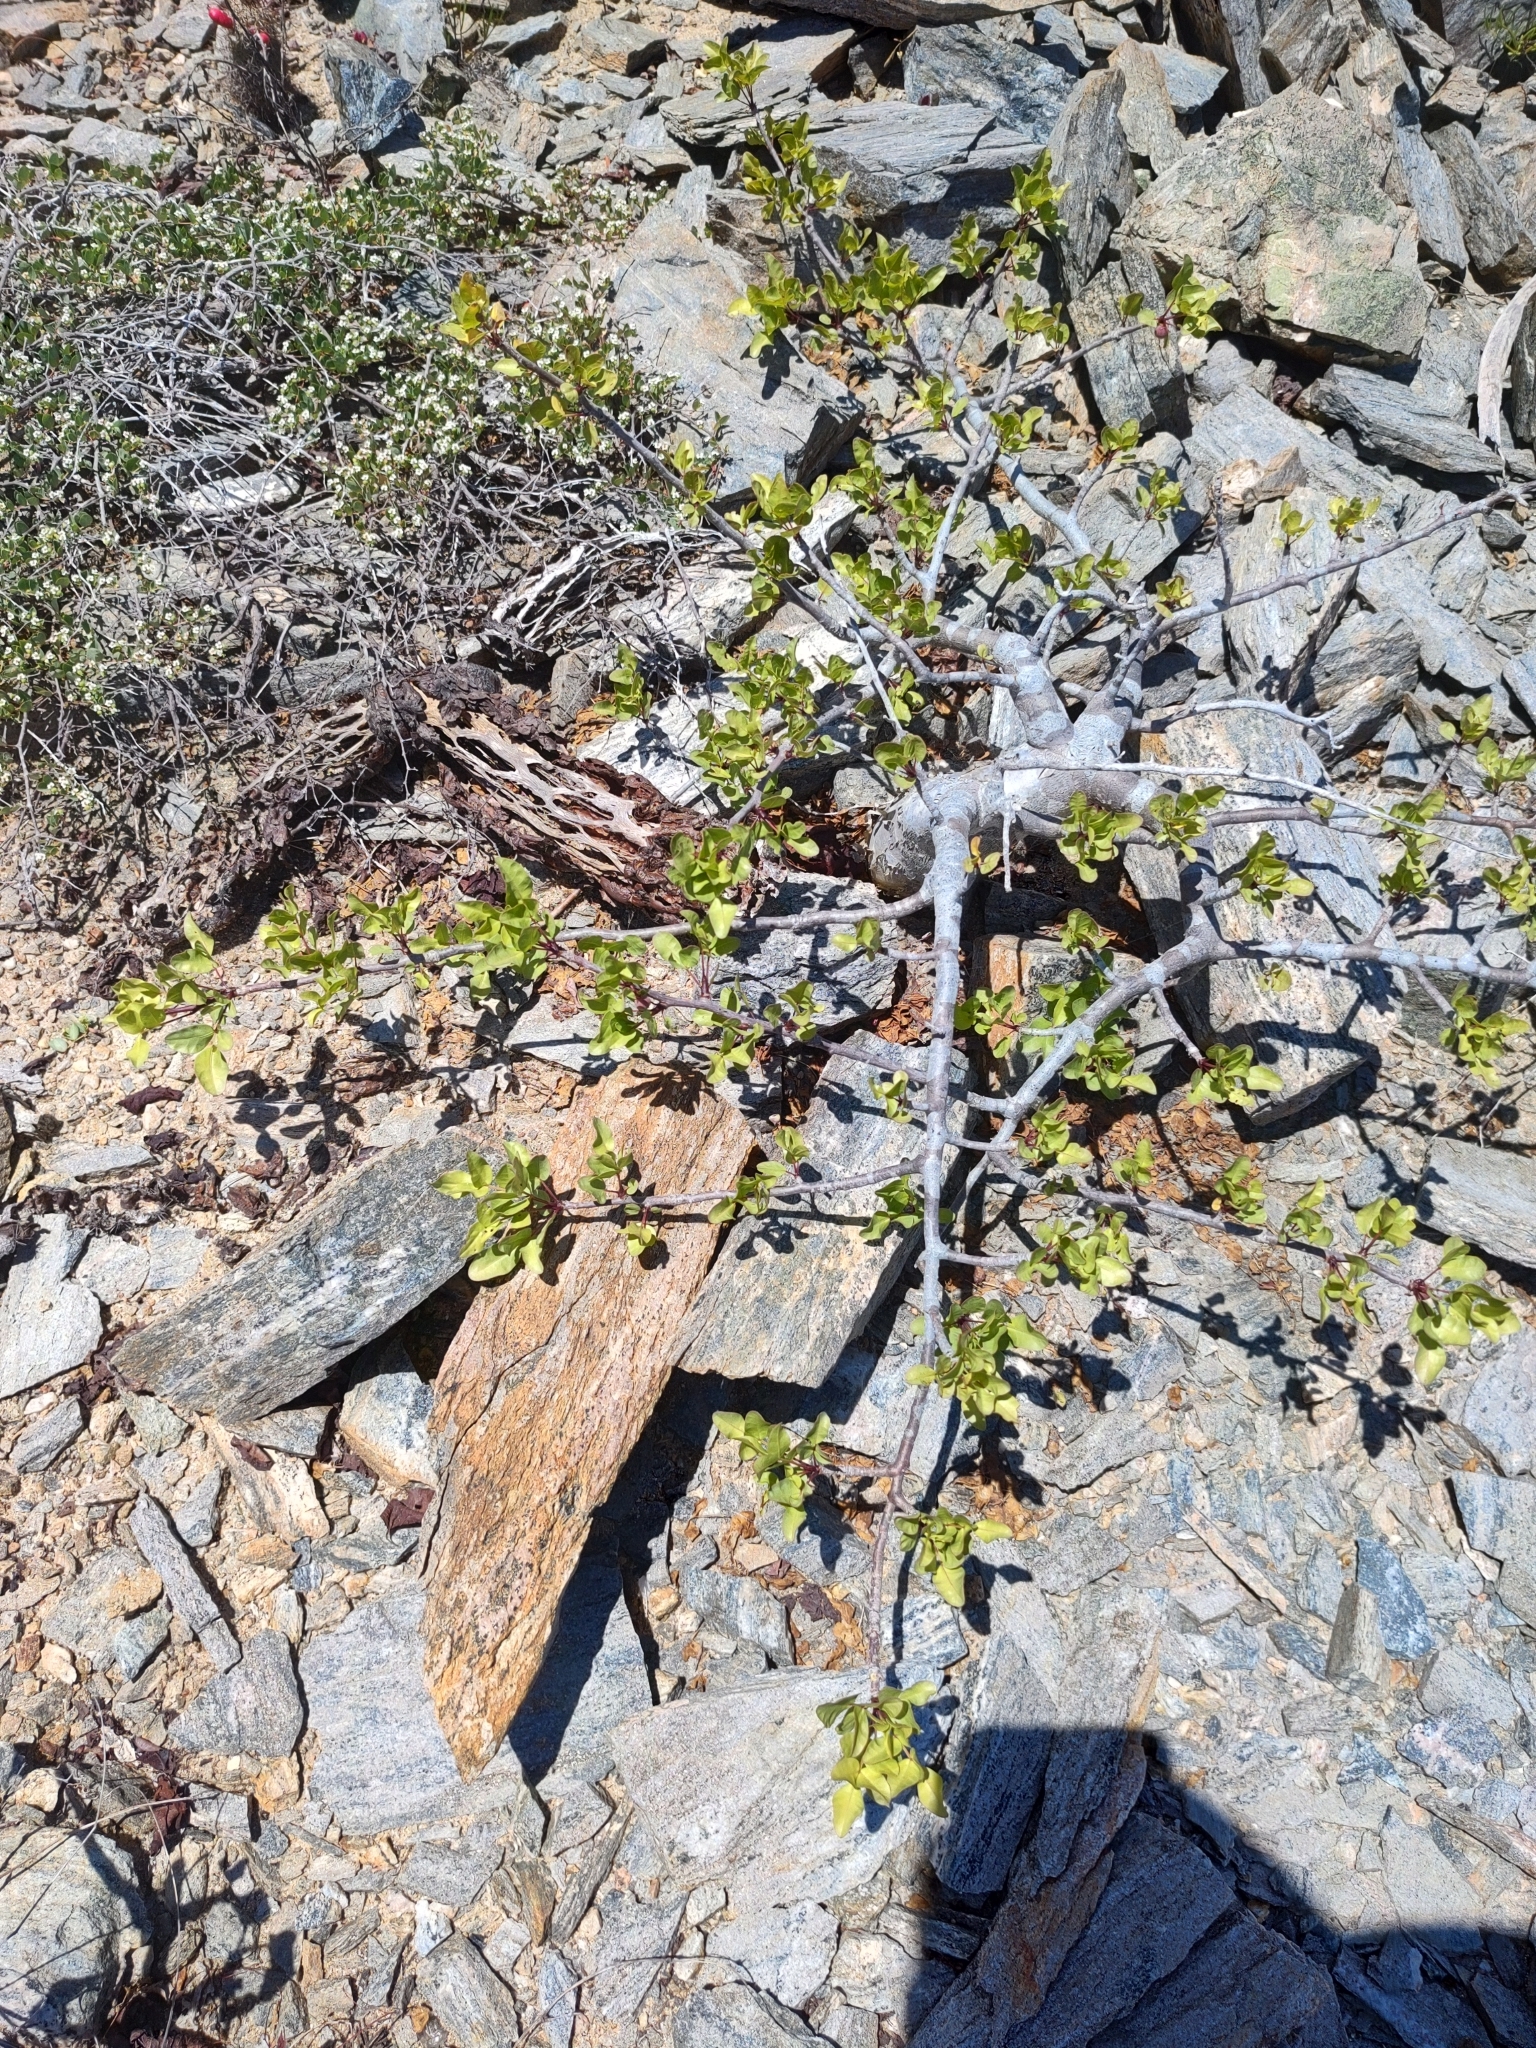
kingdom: Plantae
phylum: Tracheophyta
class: Magnoliopsida
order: Sapindales
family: Burseraceae
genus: Bursera
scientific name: Bursera fagaroides
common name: Elephant tree
